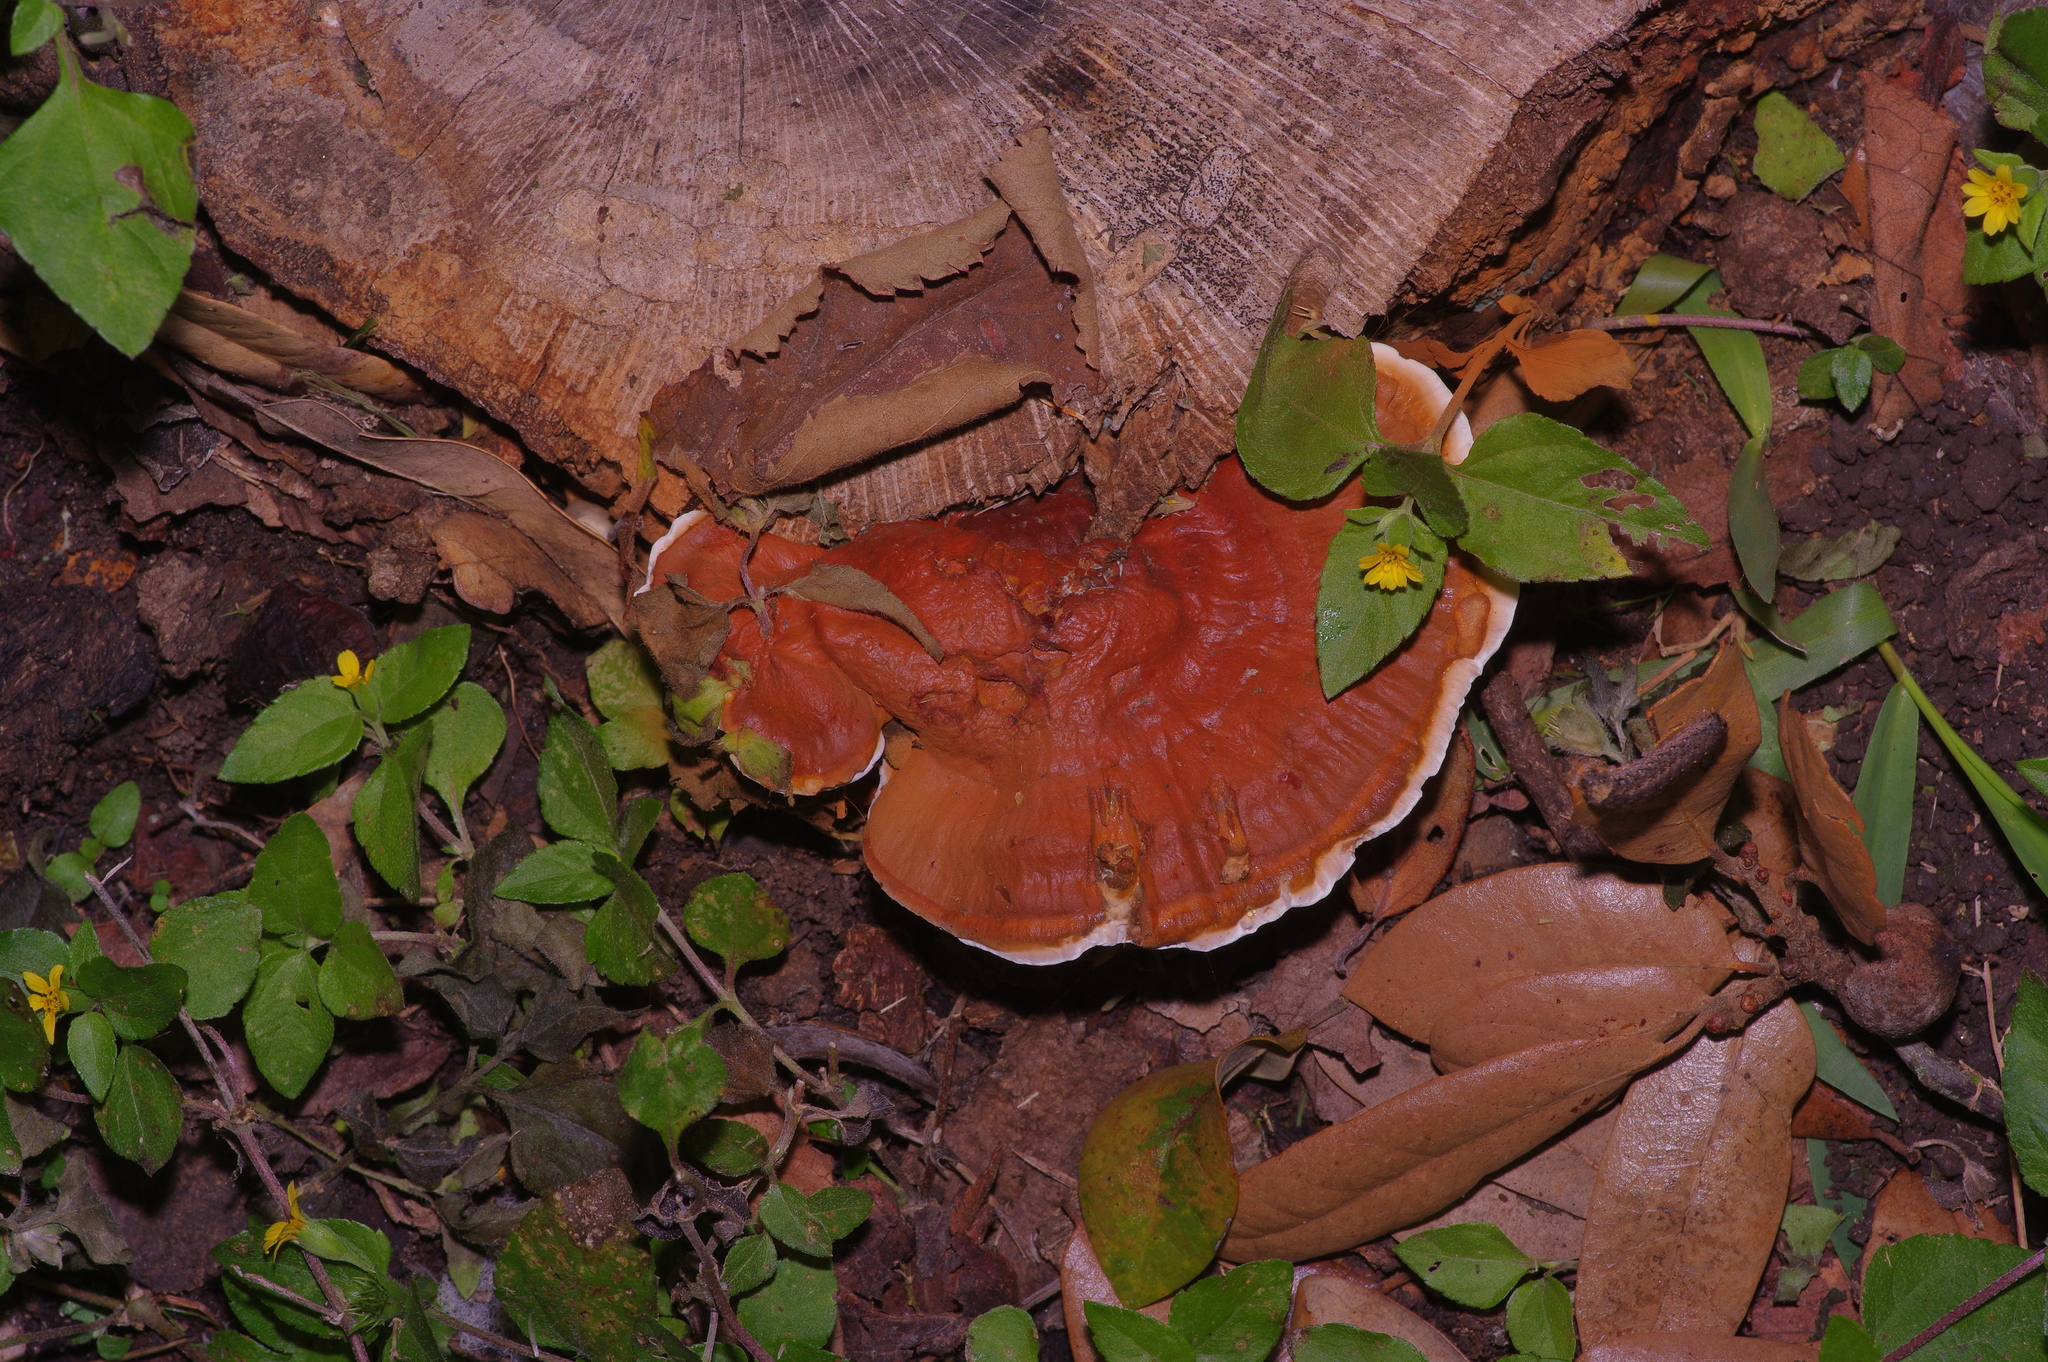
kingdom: Fungi
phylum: Basidiomycota
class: Agaricomycetes
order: Polyporales
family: Polyporaceae
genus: Ganoderma
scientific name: Ganoderma resinaceum
